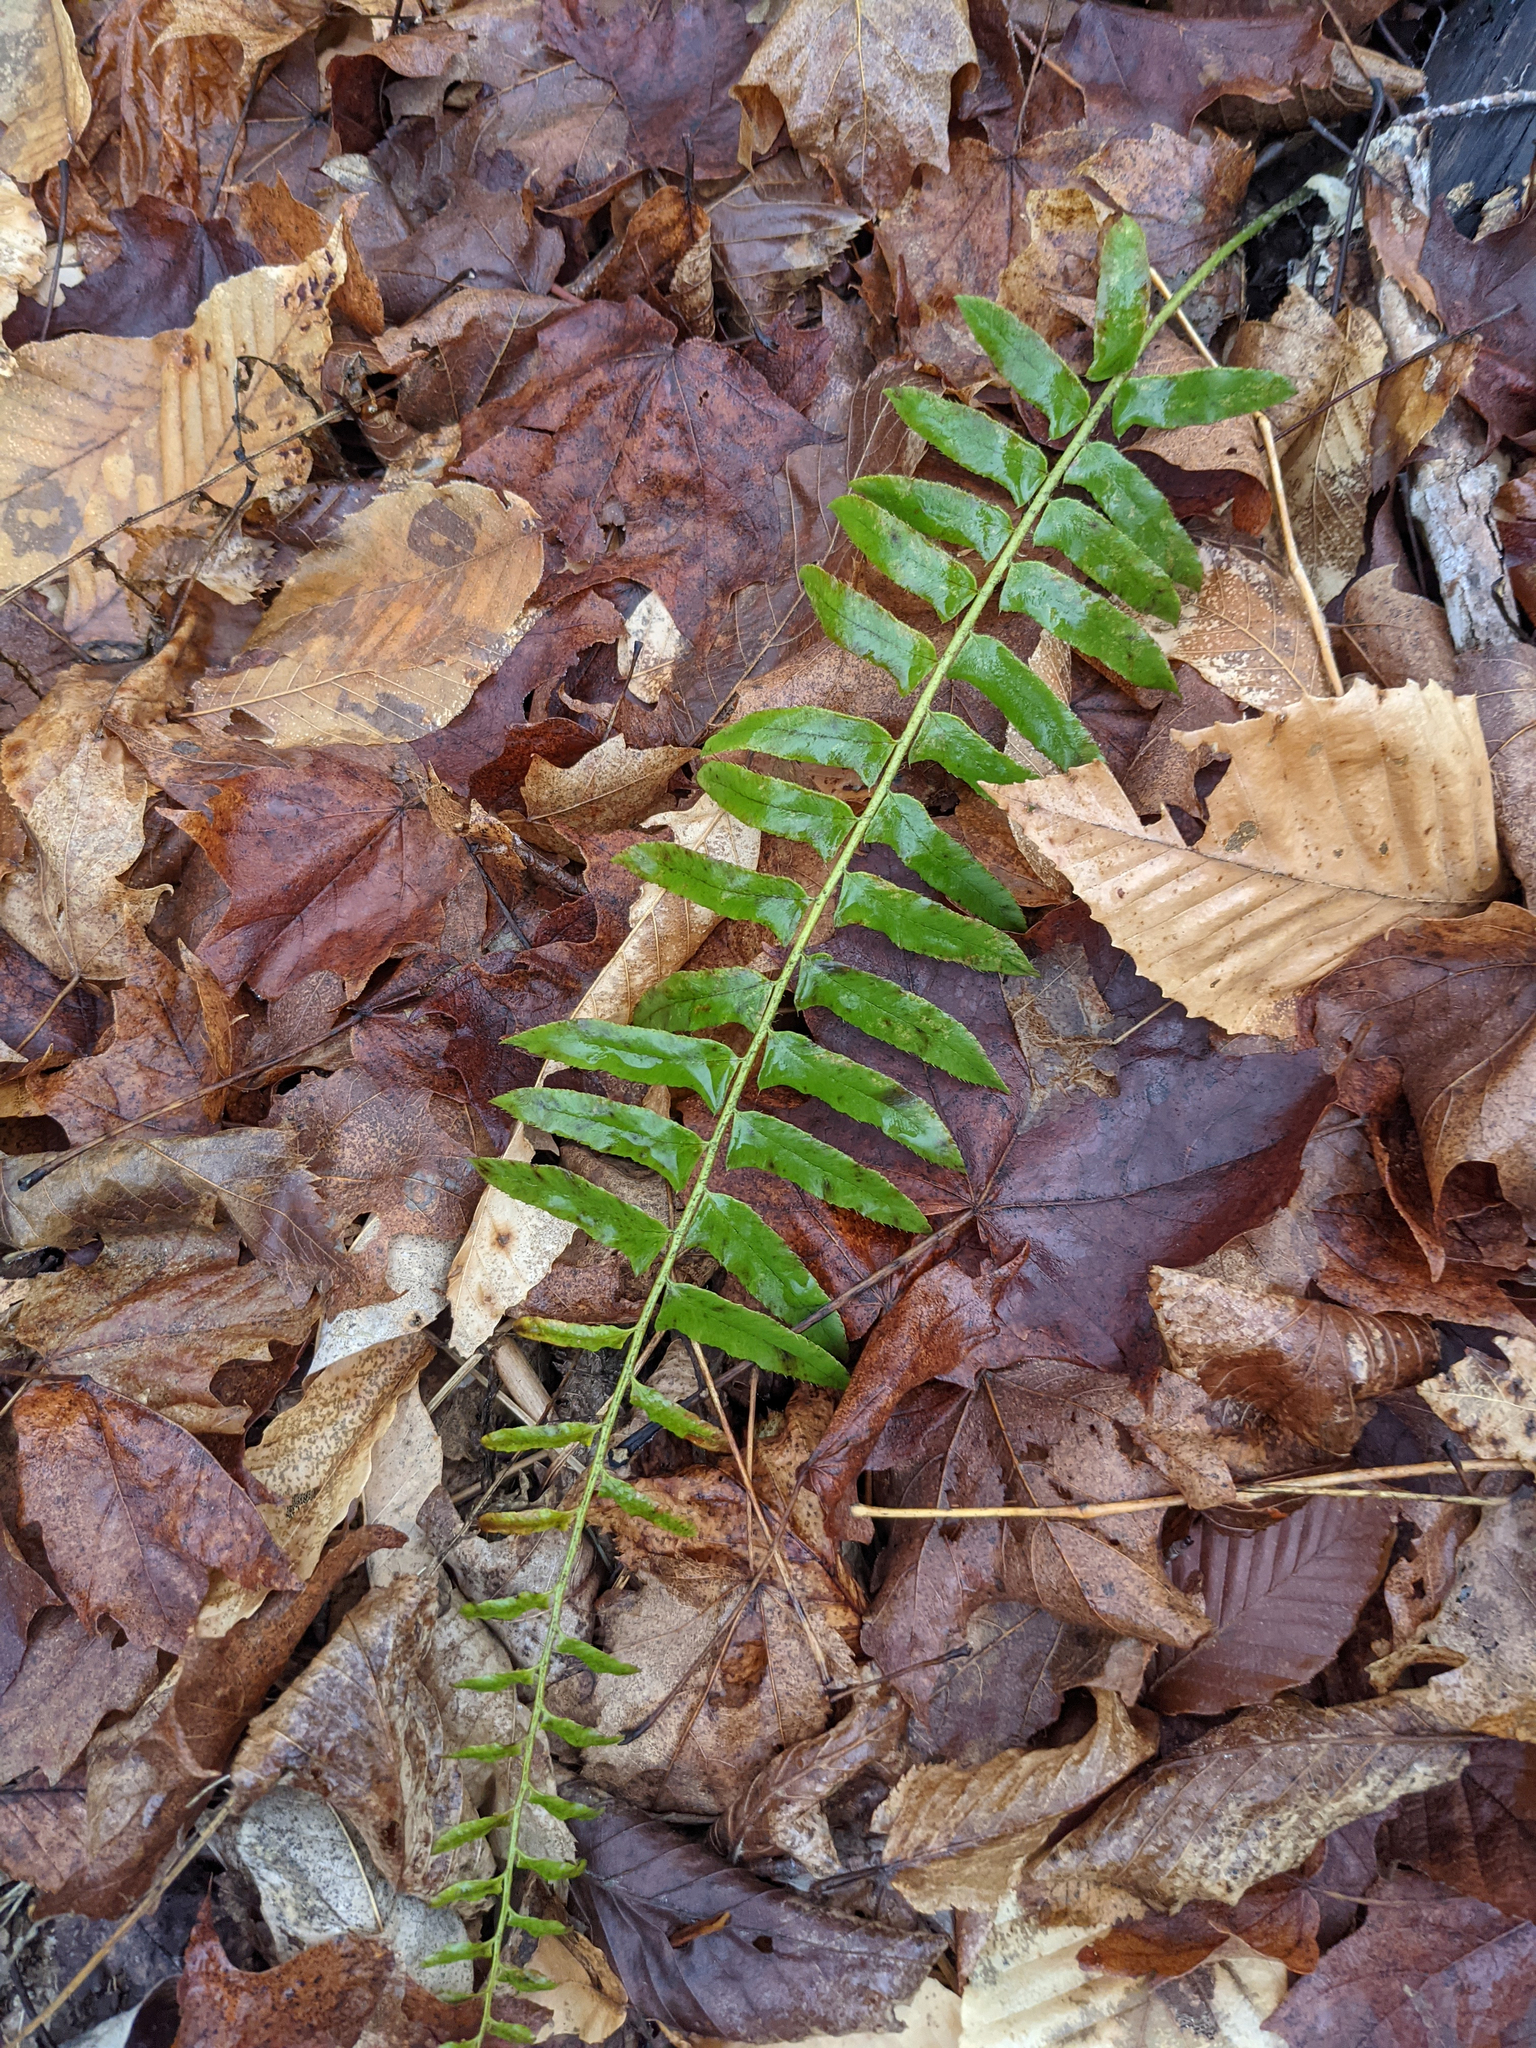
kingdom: Plantae
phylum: Tracheophyta
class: Polypodiopsida
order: Polypodiales
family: Dryopteridaceae
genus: Polystichum
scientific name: Polystichum acrostichoides
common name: Christmas fern
